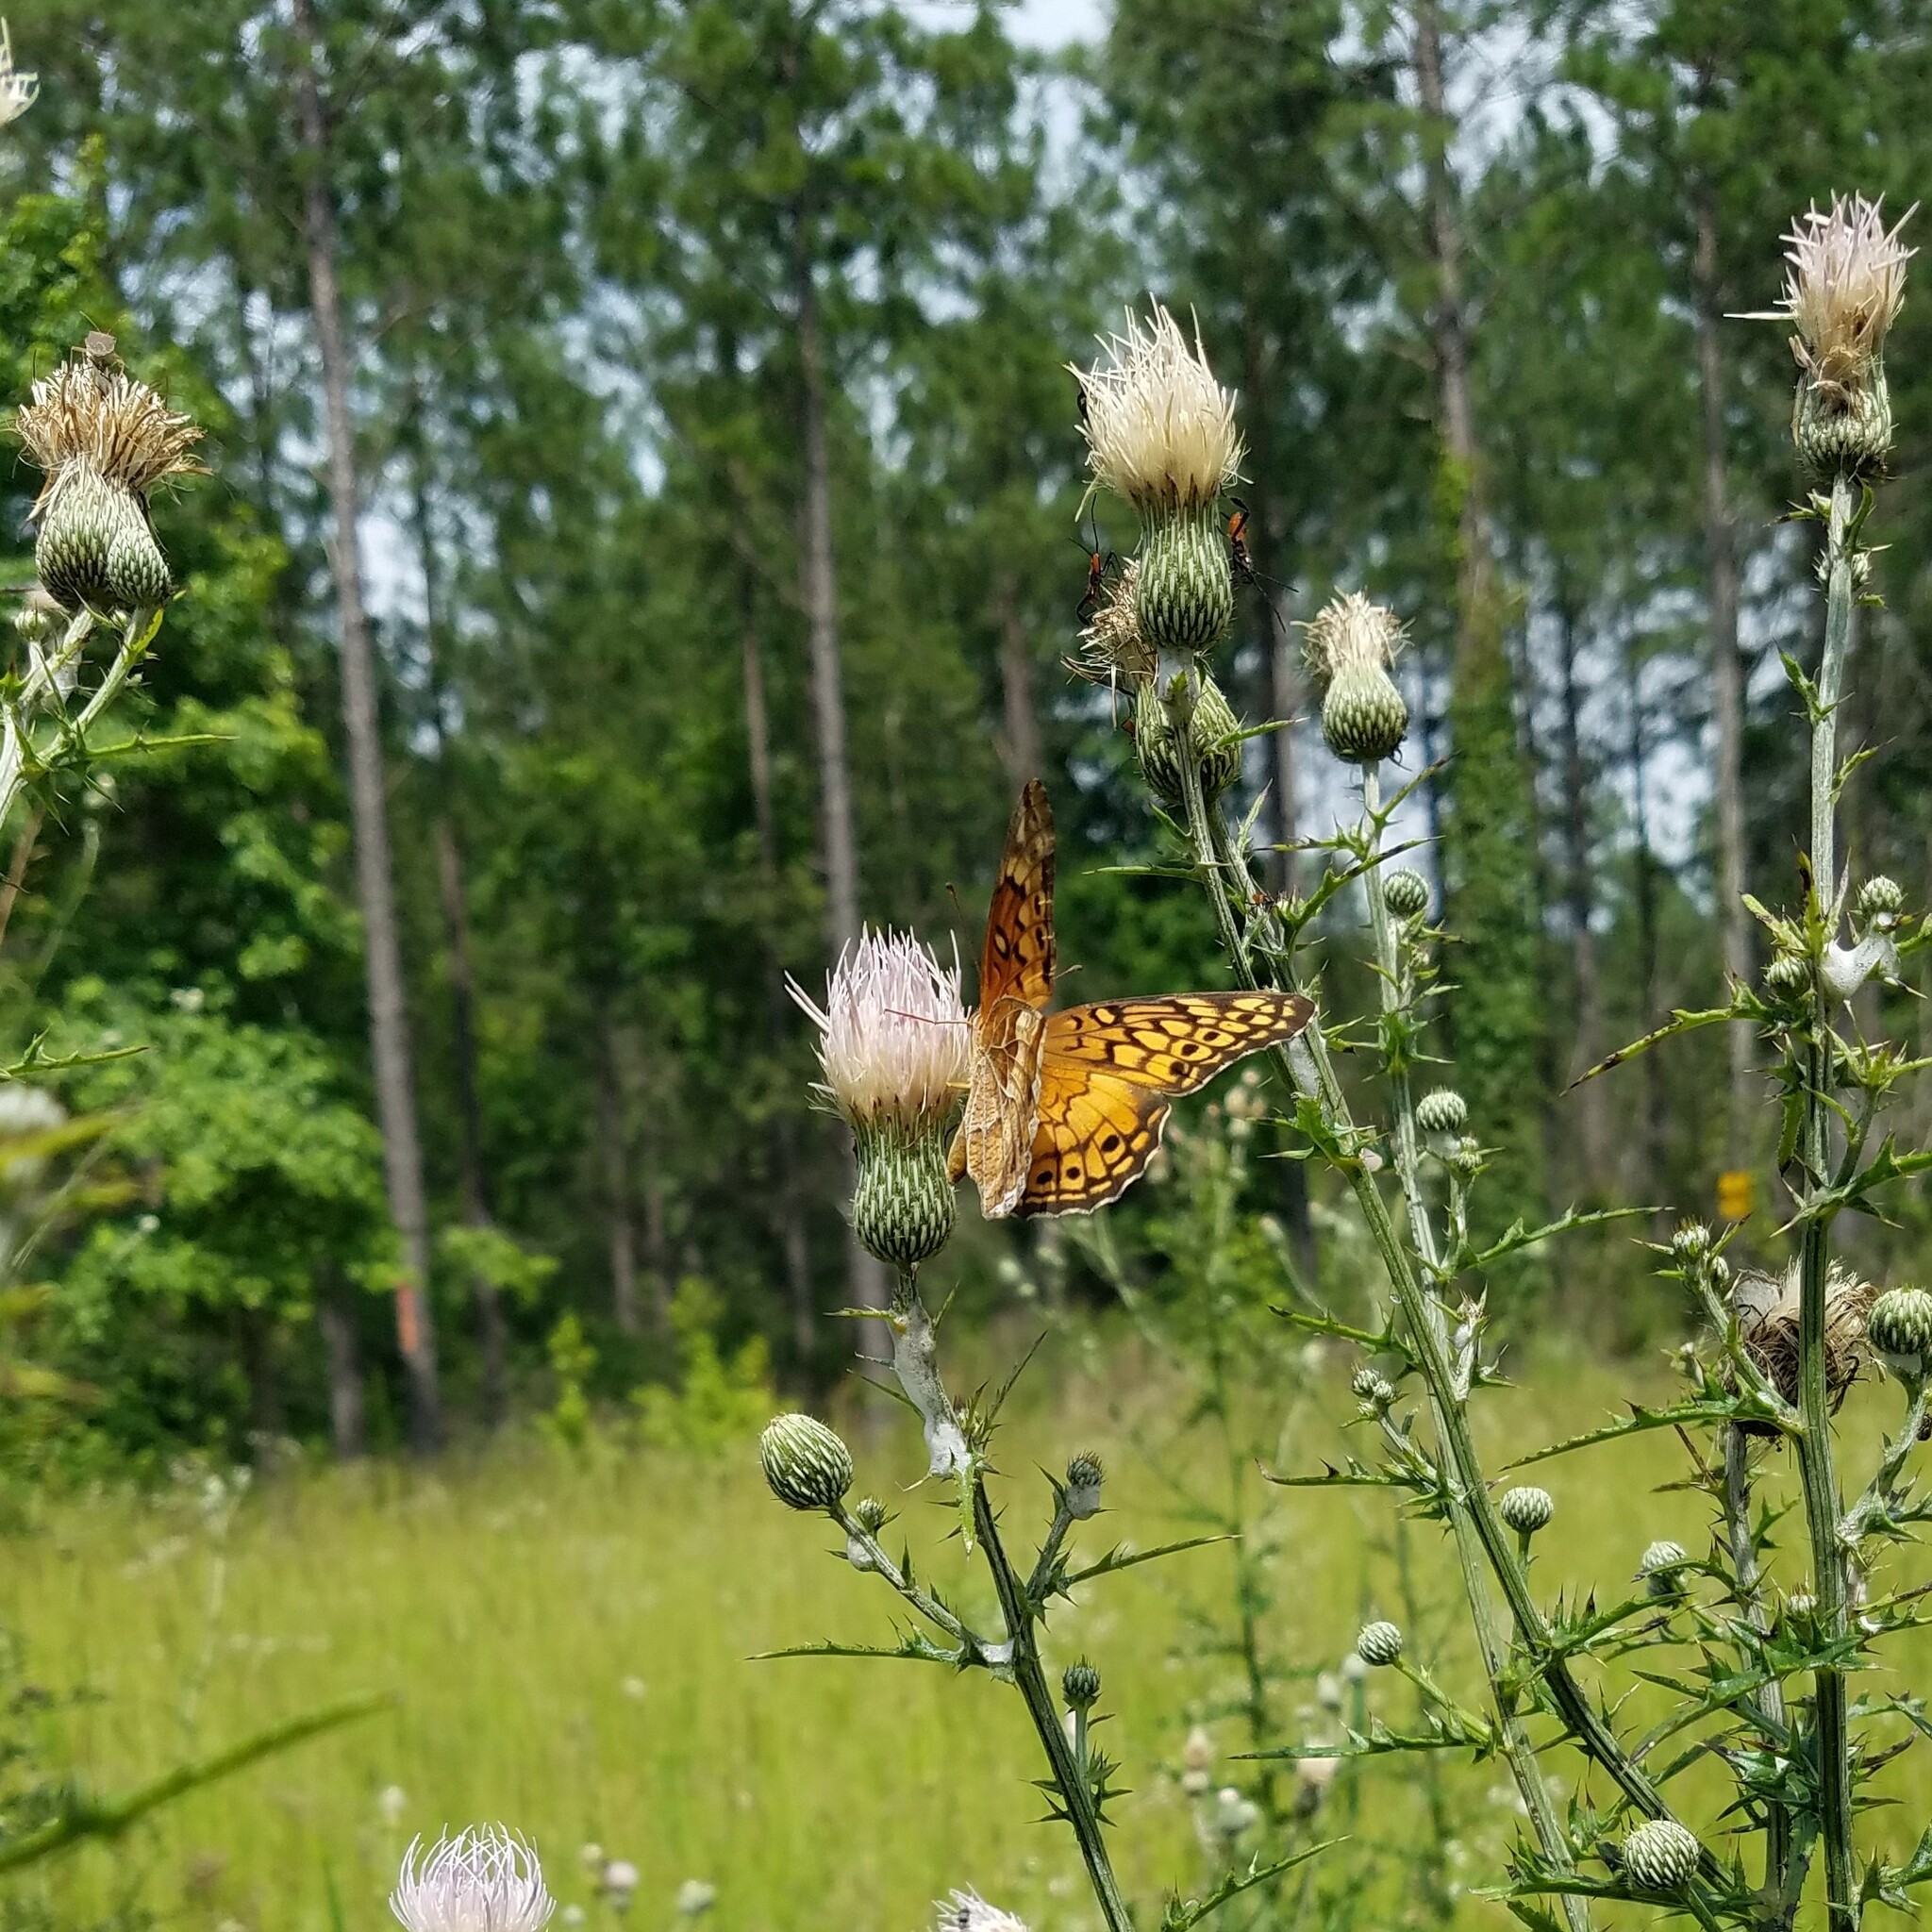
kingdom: Animalia
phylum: Arthropoda
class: Insecta
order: Lepidoptera
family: Nymphalidae
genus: Euptoieta
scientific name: Euptoieta claudia
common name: Variegated fritillary
